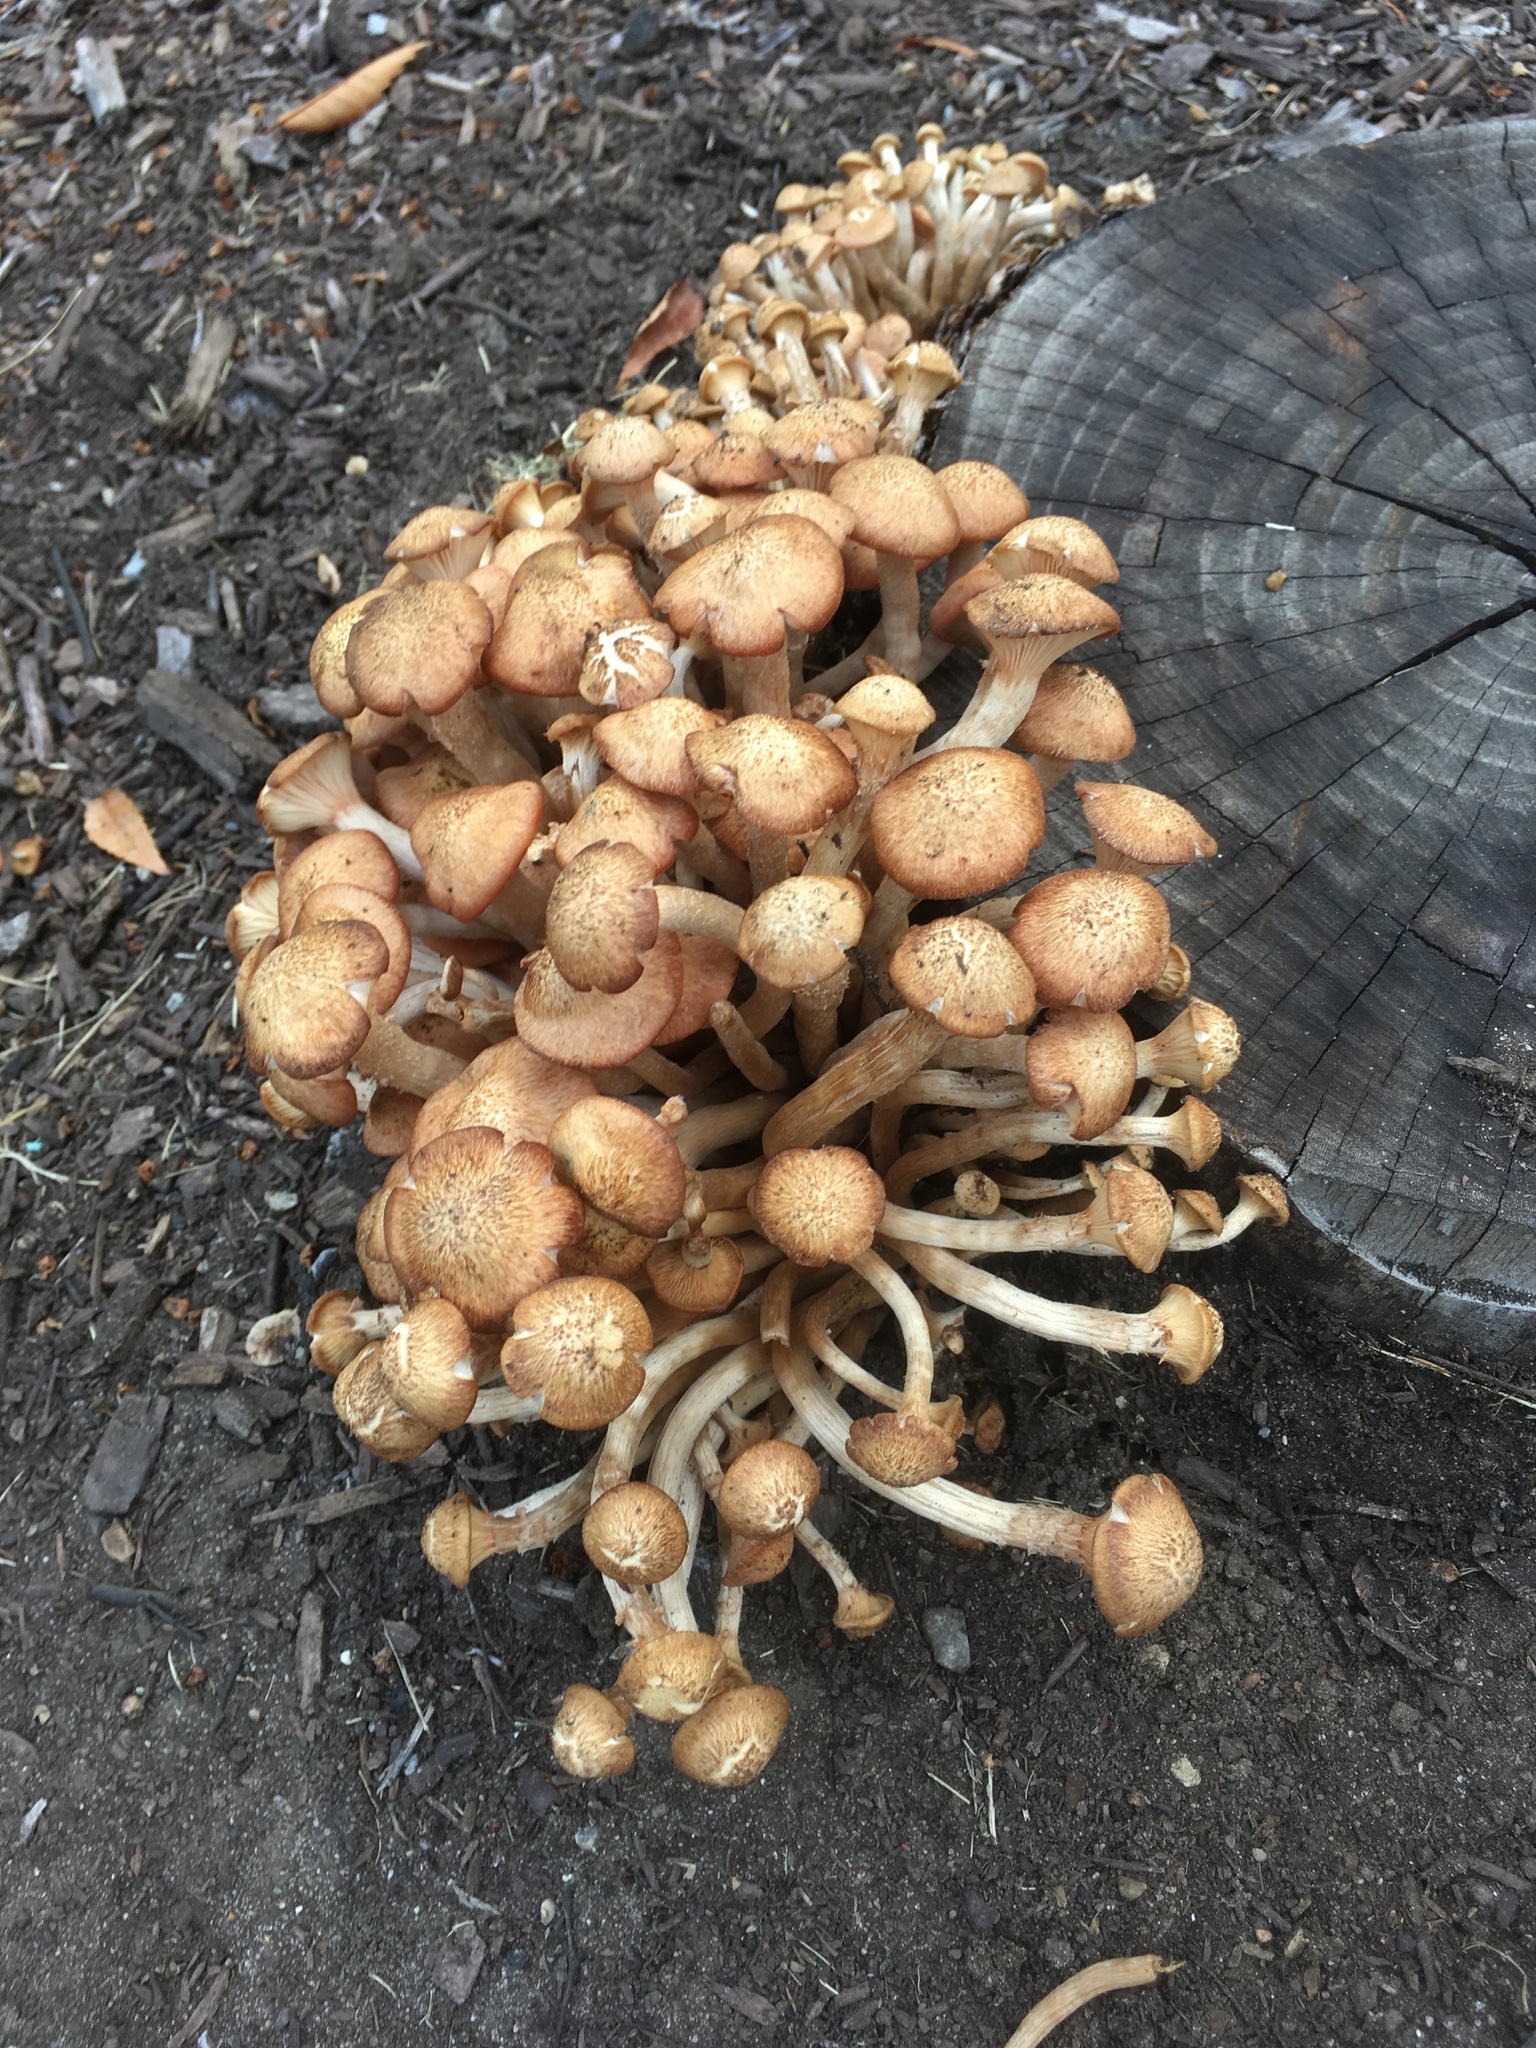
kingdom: Fungi
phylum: Basidiomycota
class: Agaricomycetes
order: Agaricales
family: Physalacriaceae
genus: Desarmillaria
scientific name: Desarmillaria caespitosa
